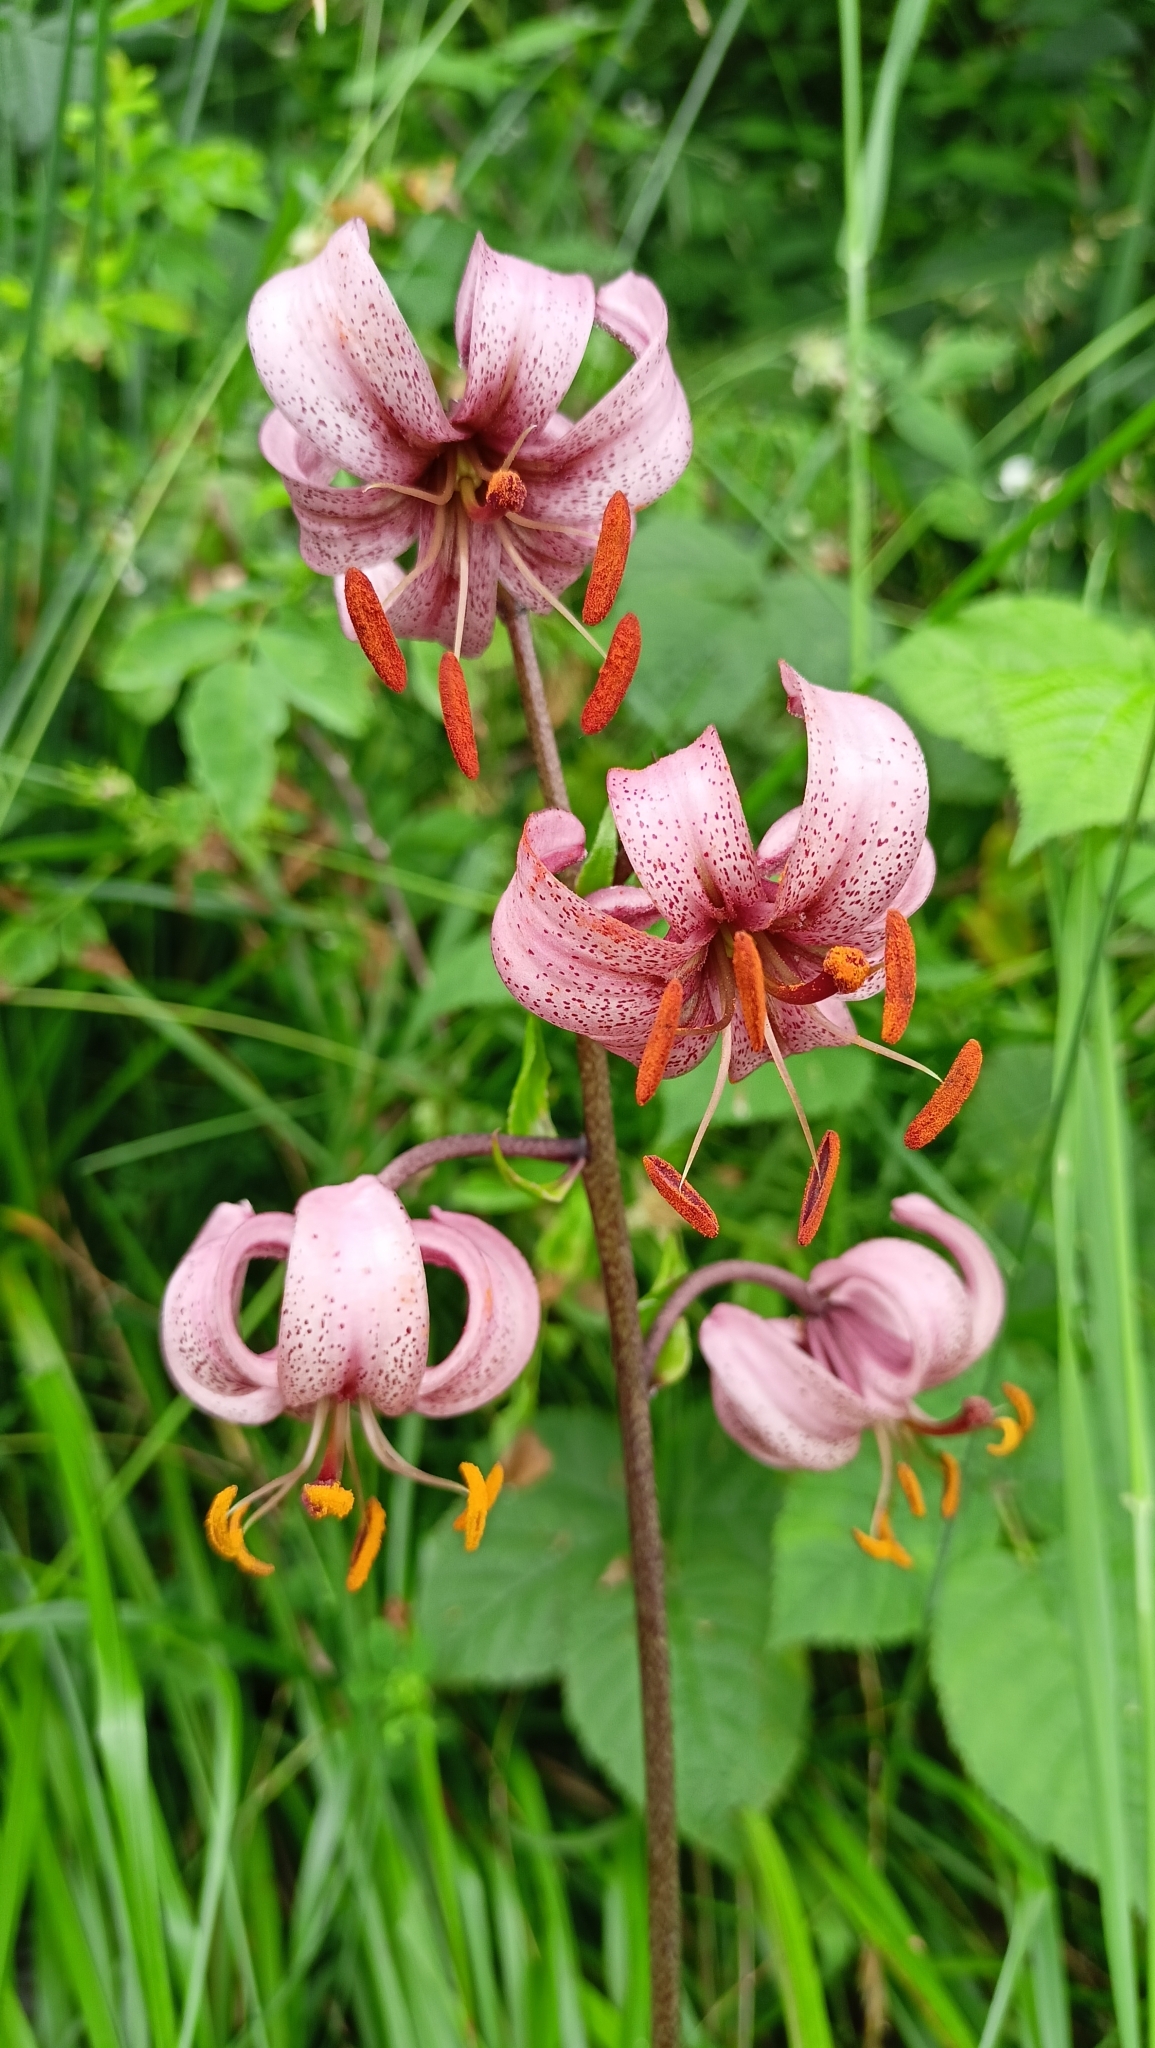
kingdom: Plantae
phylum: Tracheophyta
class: Liliopsida
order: Liliales
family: Liliaceae
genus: Lilium
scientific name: Lilium martagon
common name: Martagon lily
